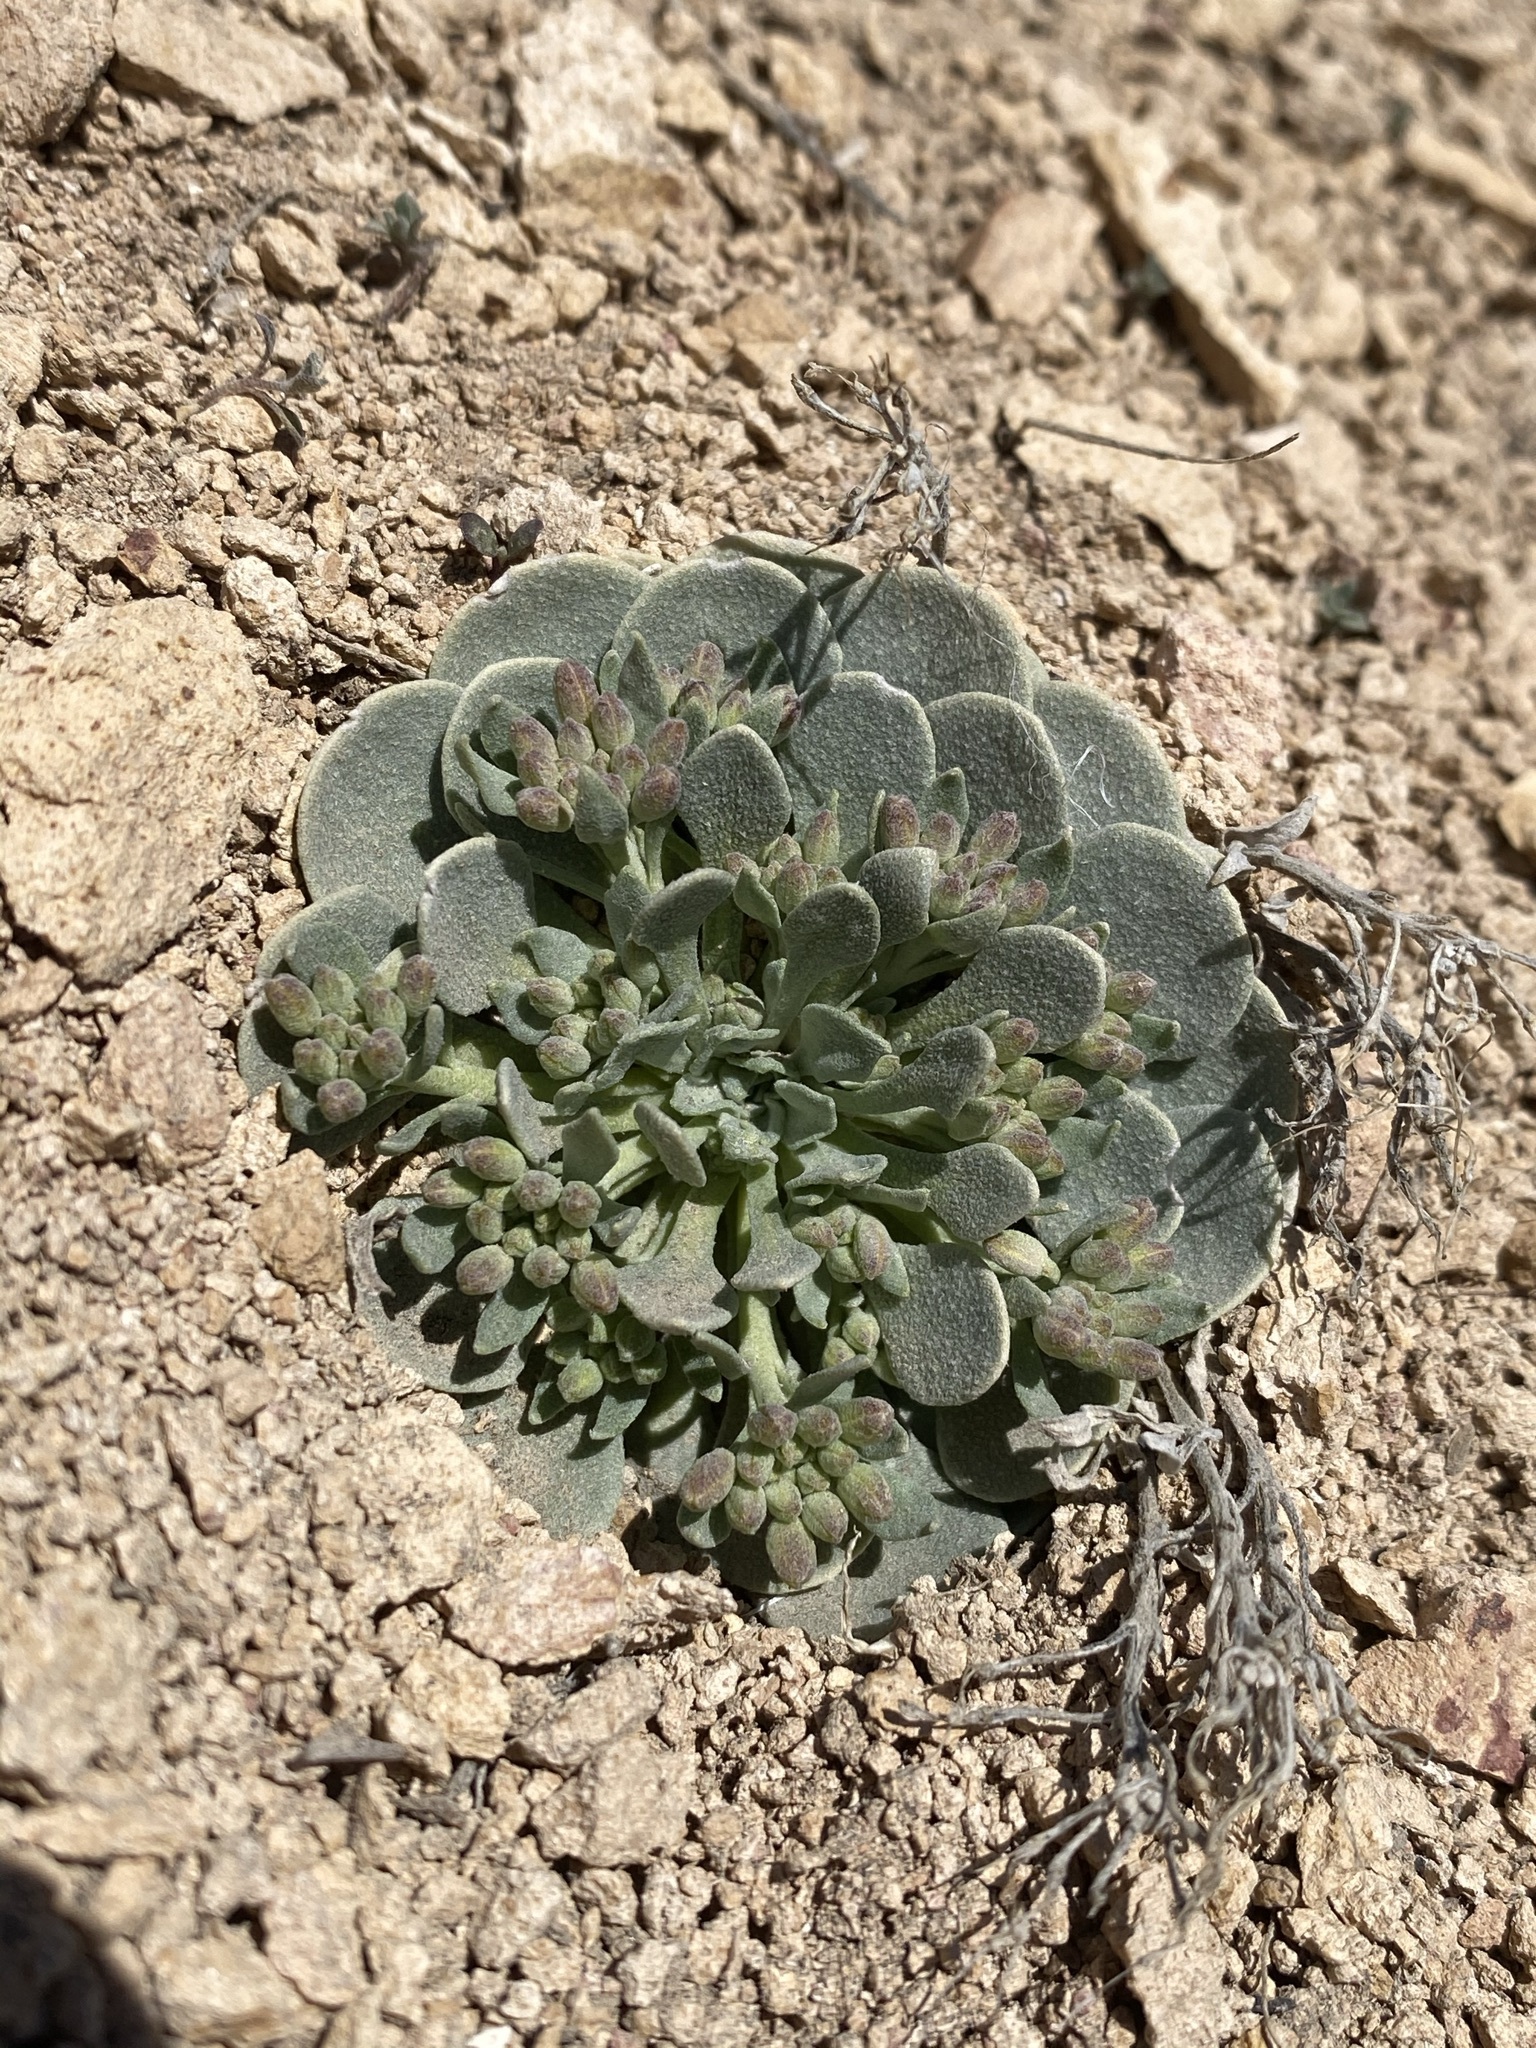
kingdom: Plantae
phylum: Tracheophyta
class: Magnoliopsida
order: Brassicales
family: Brassicaceae
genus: Physaria
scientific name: Physaria chambersii
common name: Chamber's twinpod
